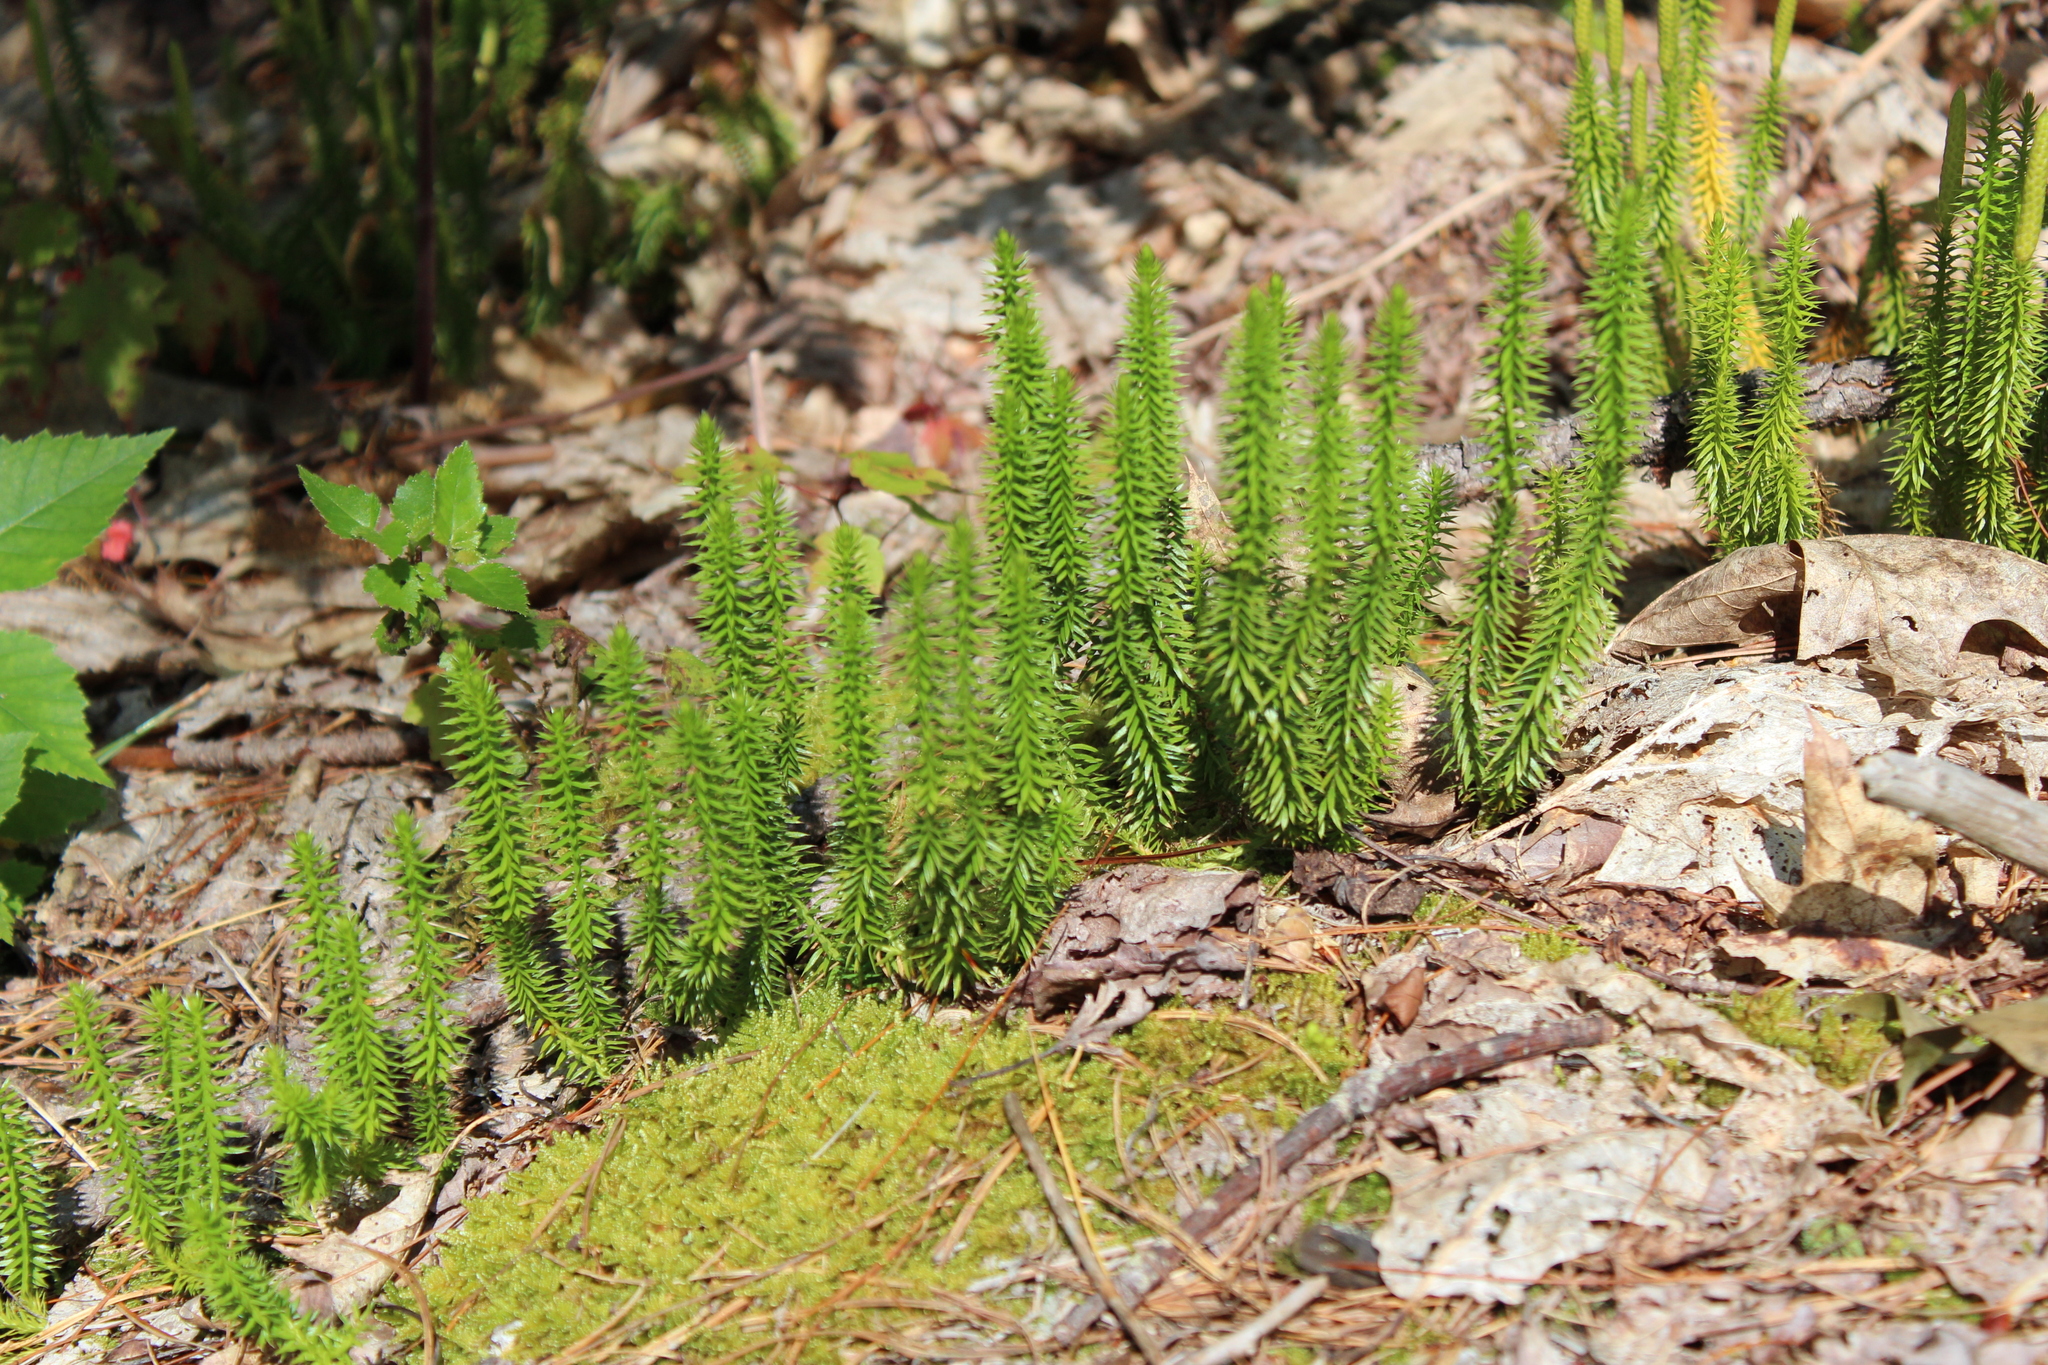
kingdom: Plantae
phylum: Tracheophyta
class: Lycopodiopsida
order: Lycopodiales
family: Lycopodiaceae
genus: Spinulum
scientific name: Spinulum annotinum
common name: Interrupted club-moss
